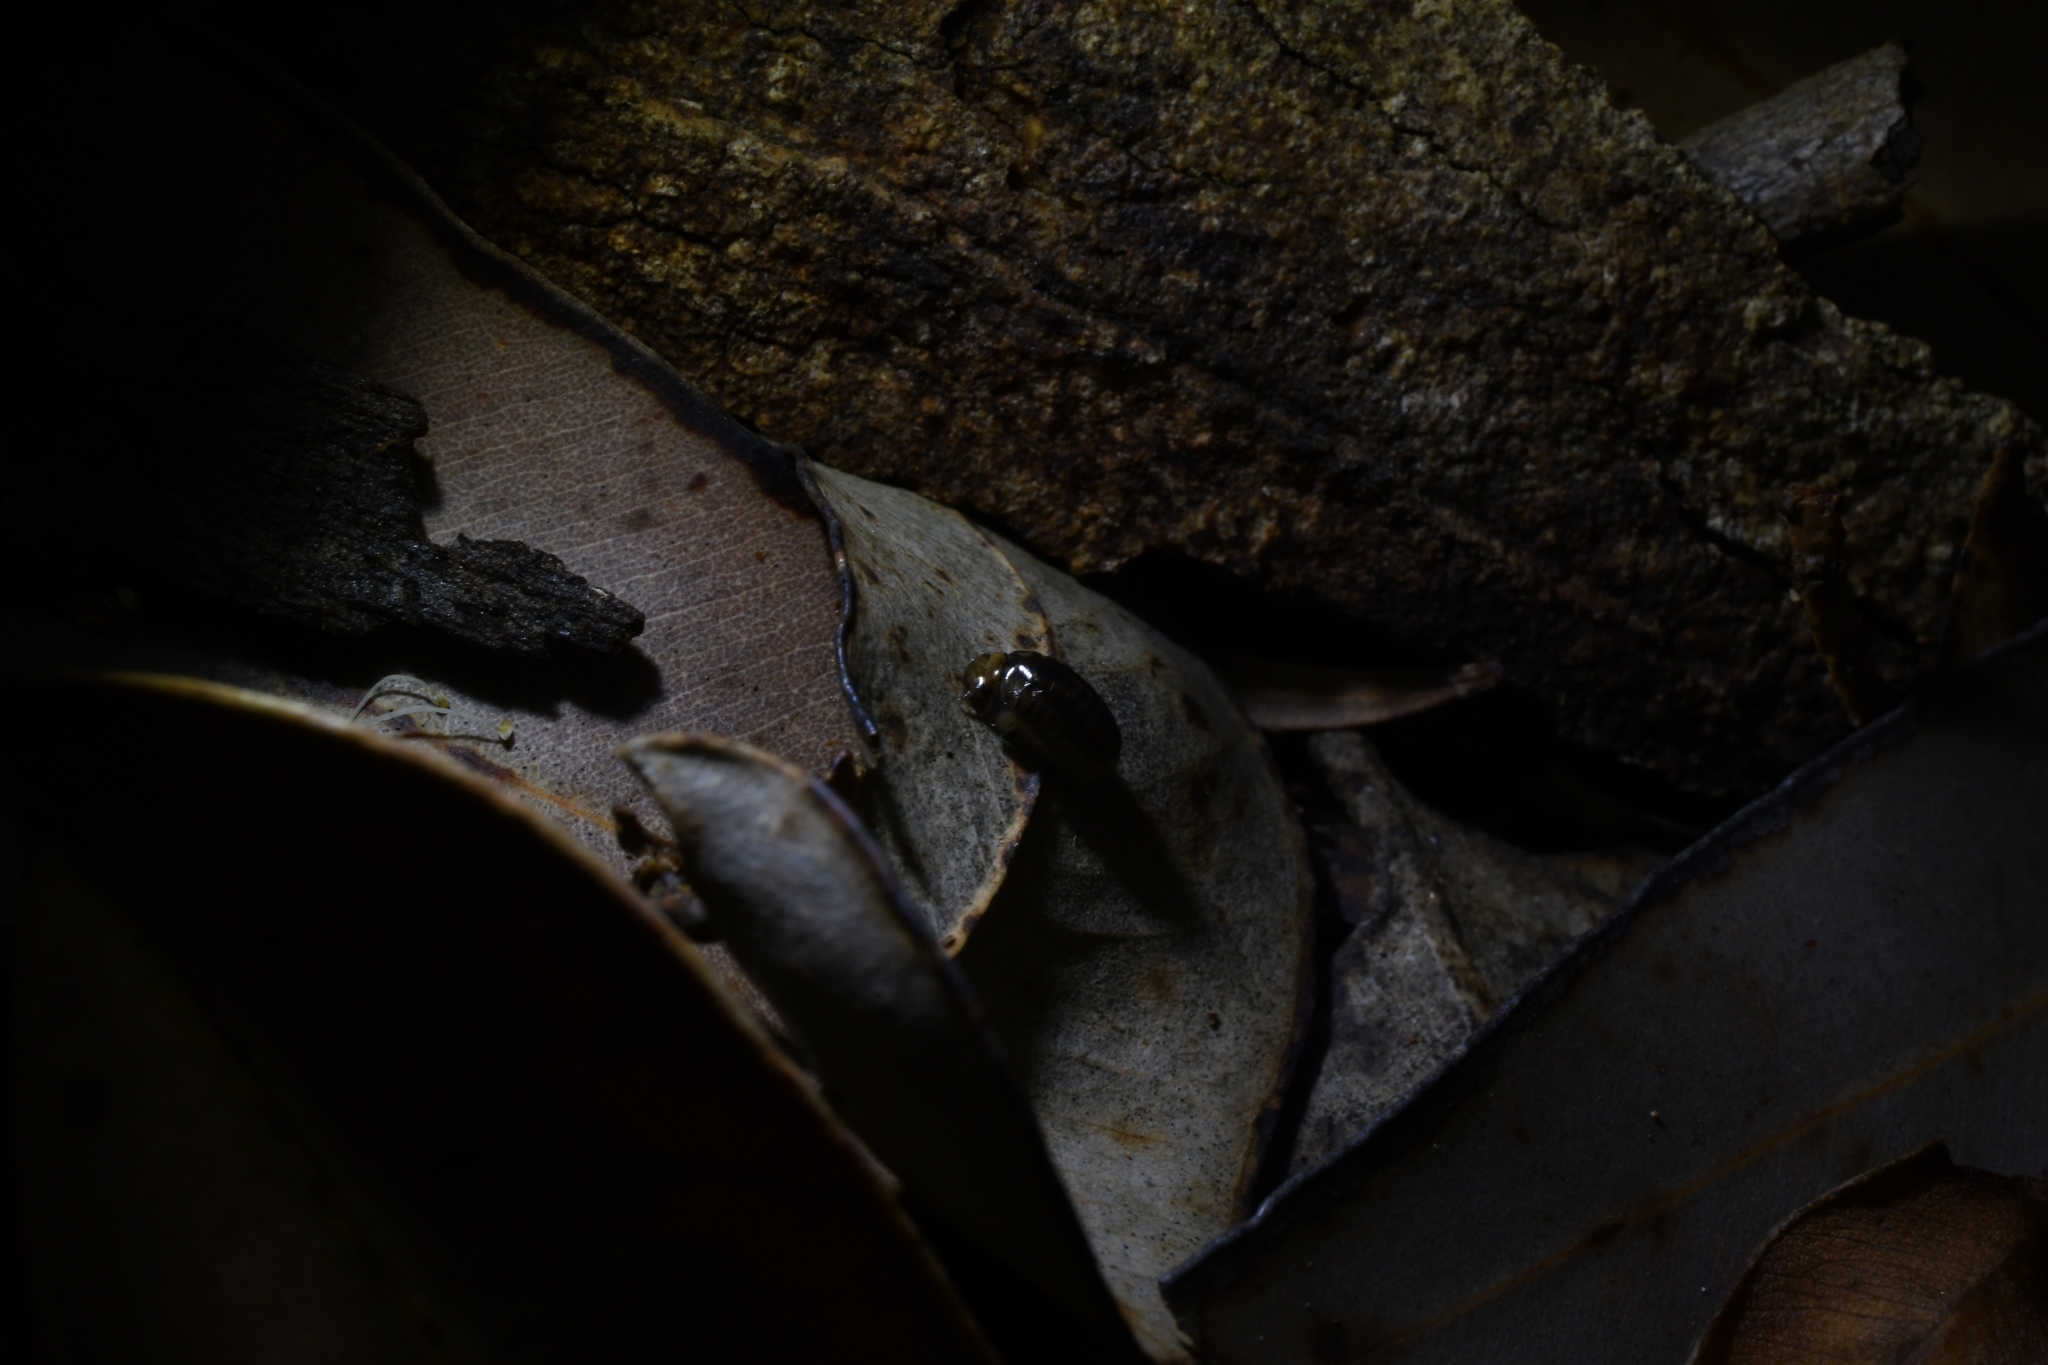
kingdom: Animalia
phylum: Arthropoda
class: Diplopoda
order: Sphaerotheriida
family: Cyliosomatidae
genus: Cynotelopus
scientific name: Cynotelopus notabilis
